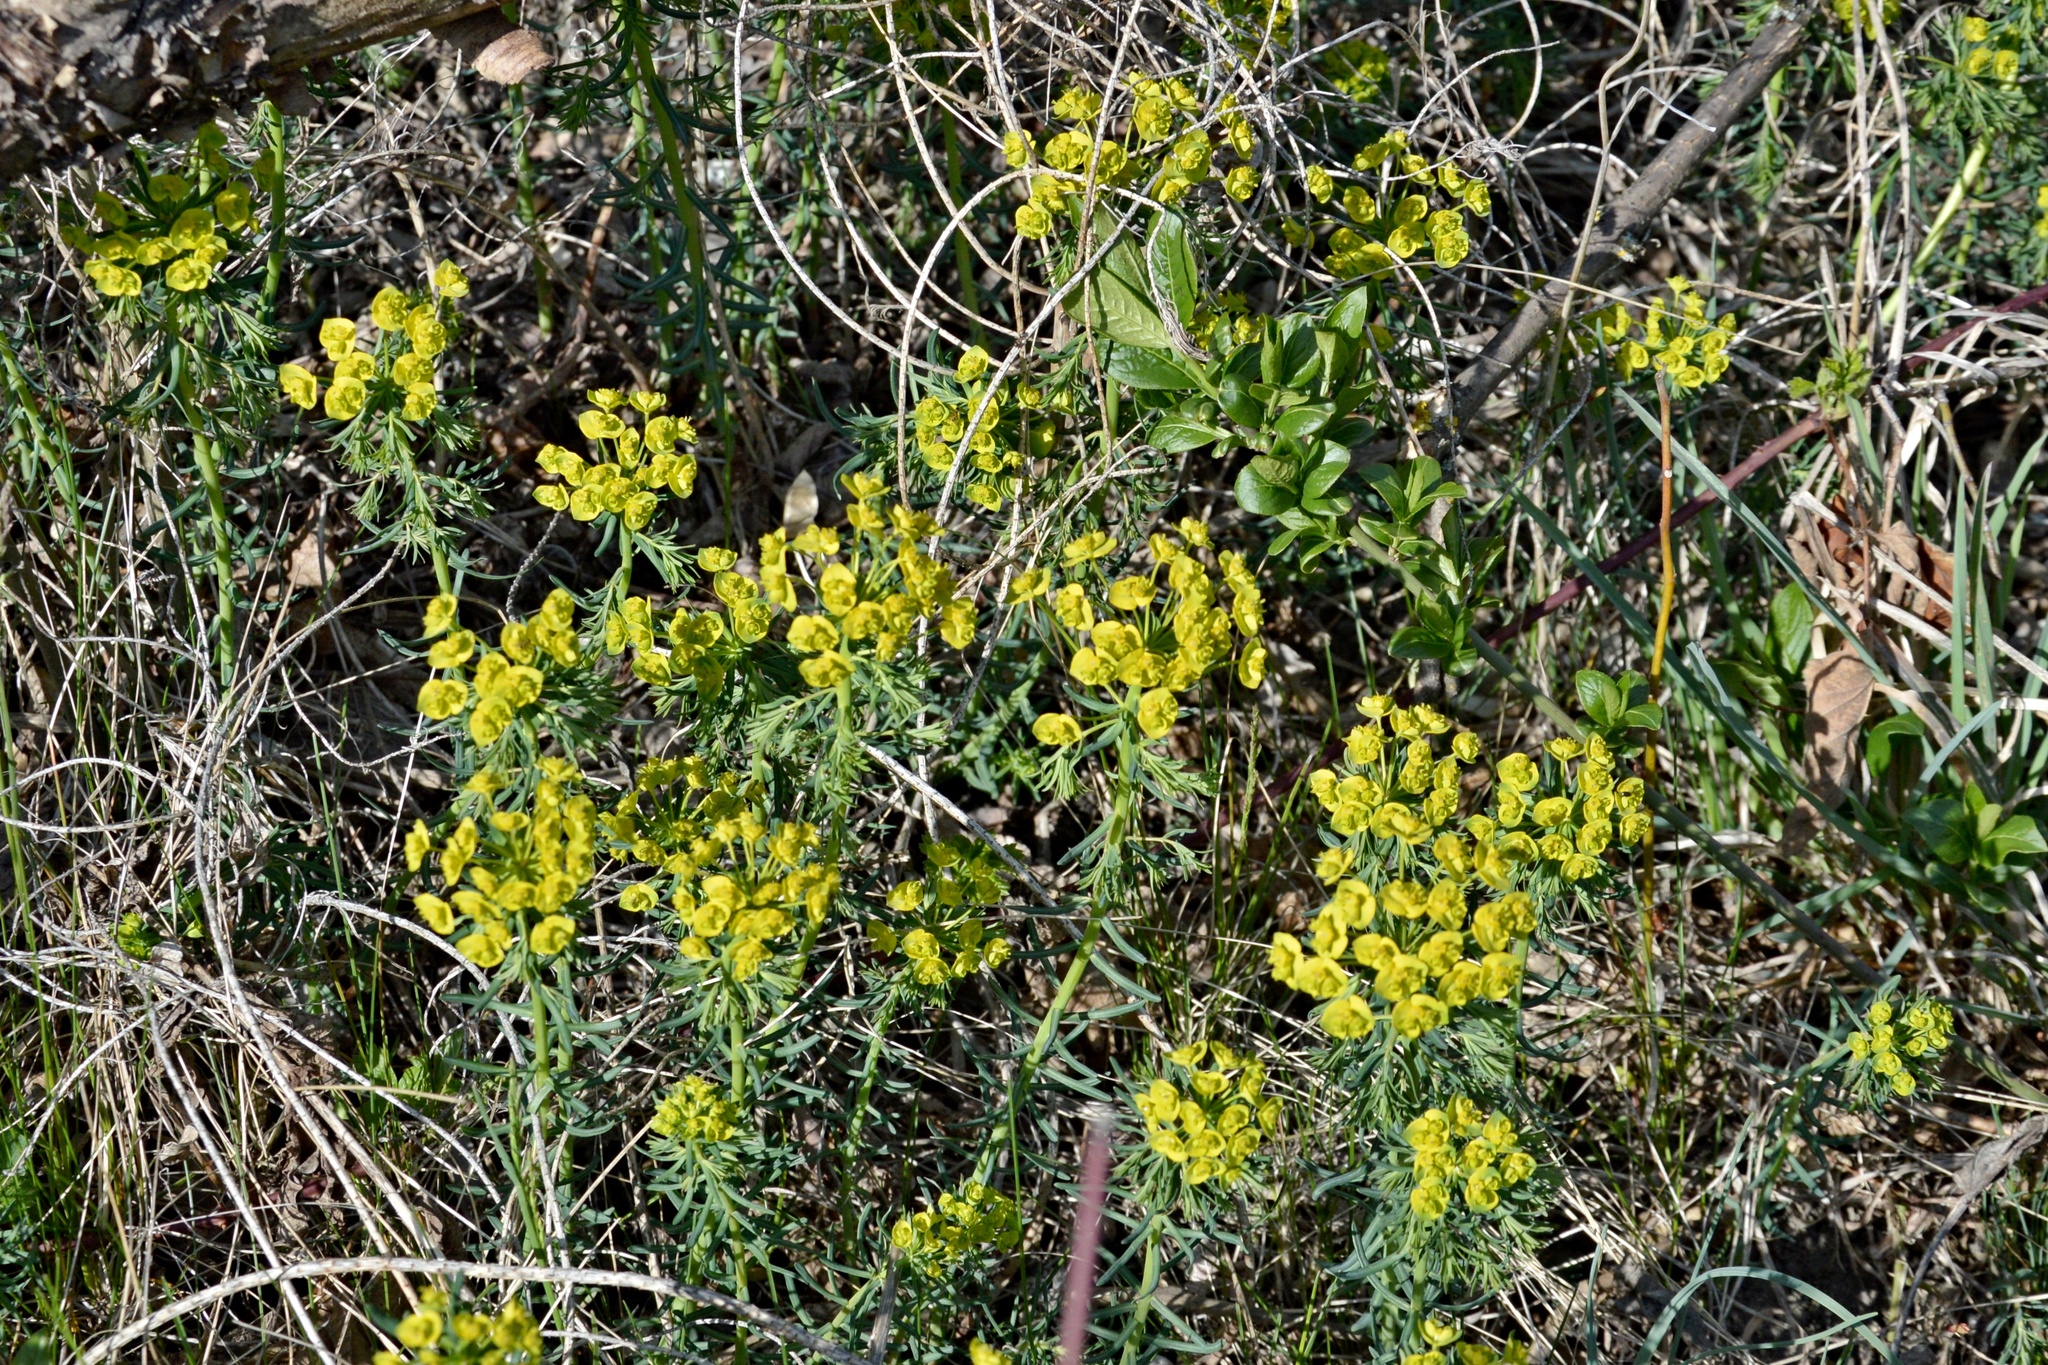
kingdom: Plantae
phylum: Tracheophyta
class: Magnoliopsida
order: Malpighiales
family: Euphorbiaceae
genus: Euphorbia
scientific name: Euphorbia cyparissias
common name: Cypress spurge
